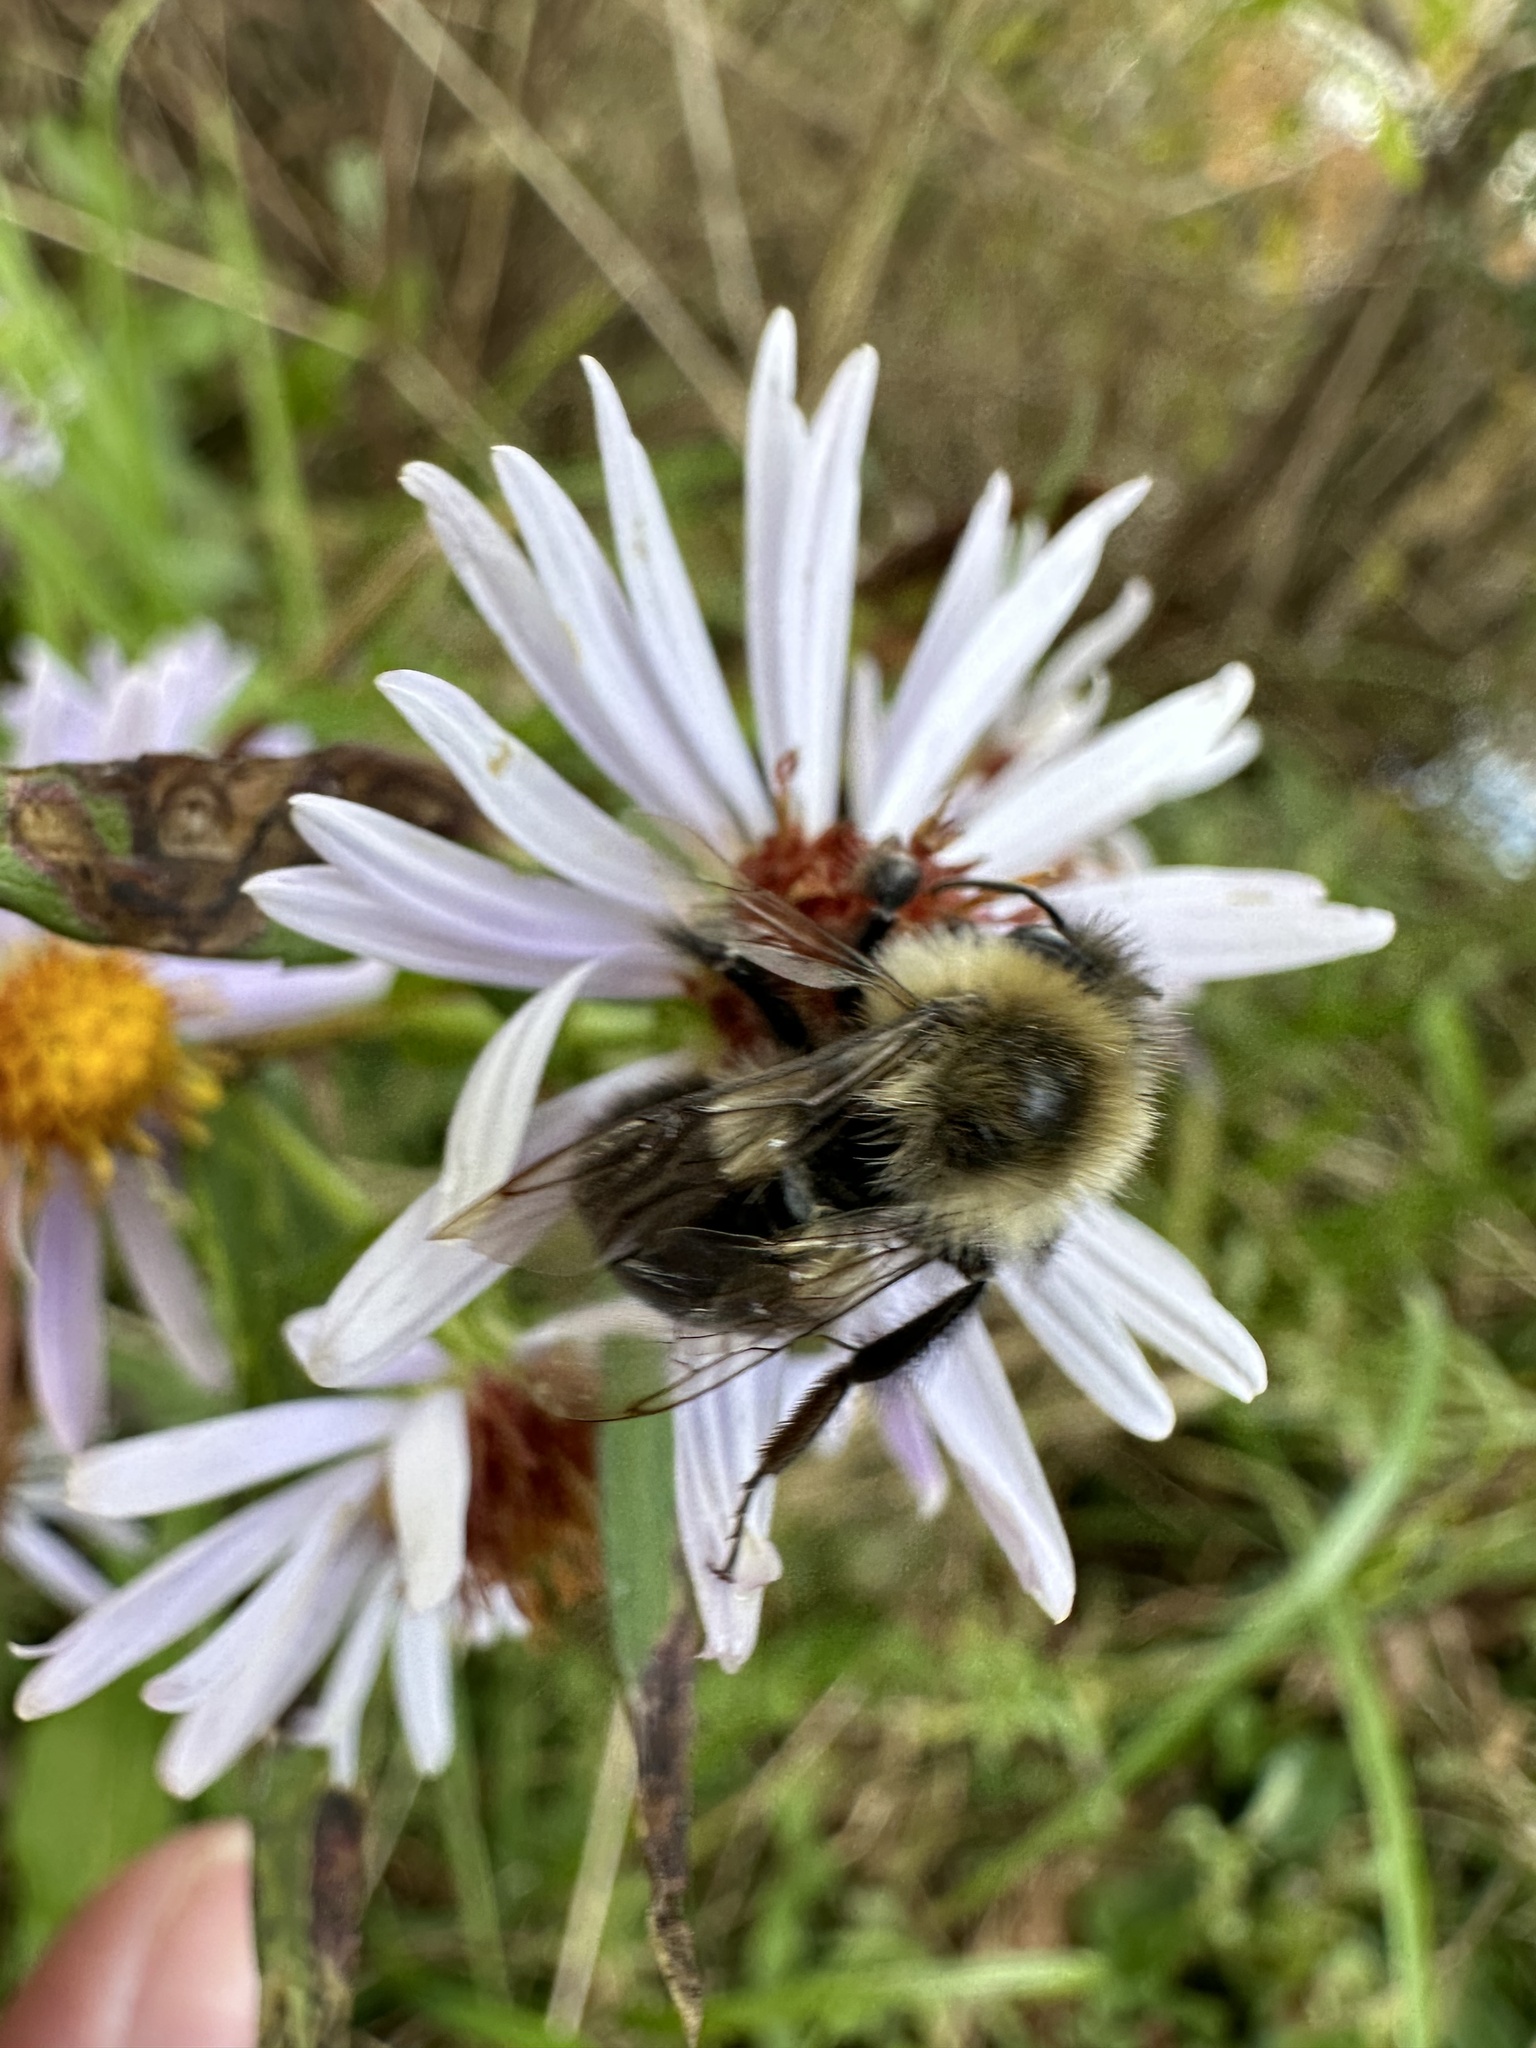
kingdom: Animalia
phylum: Arthropoda
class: Insecta
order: Hymenoptera
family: Apidae
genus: Bombus
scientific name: Bombus impatiens
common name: Common eastern bumble bee
